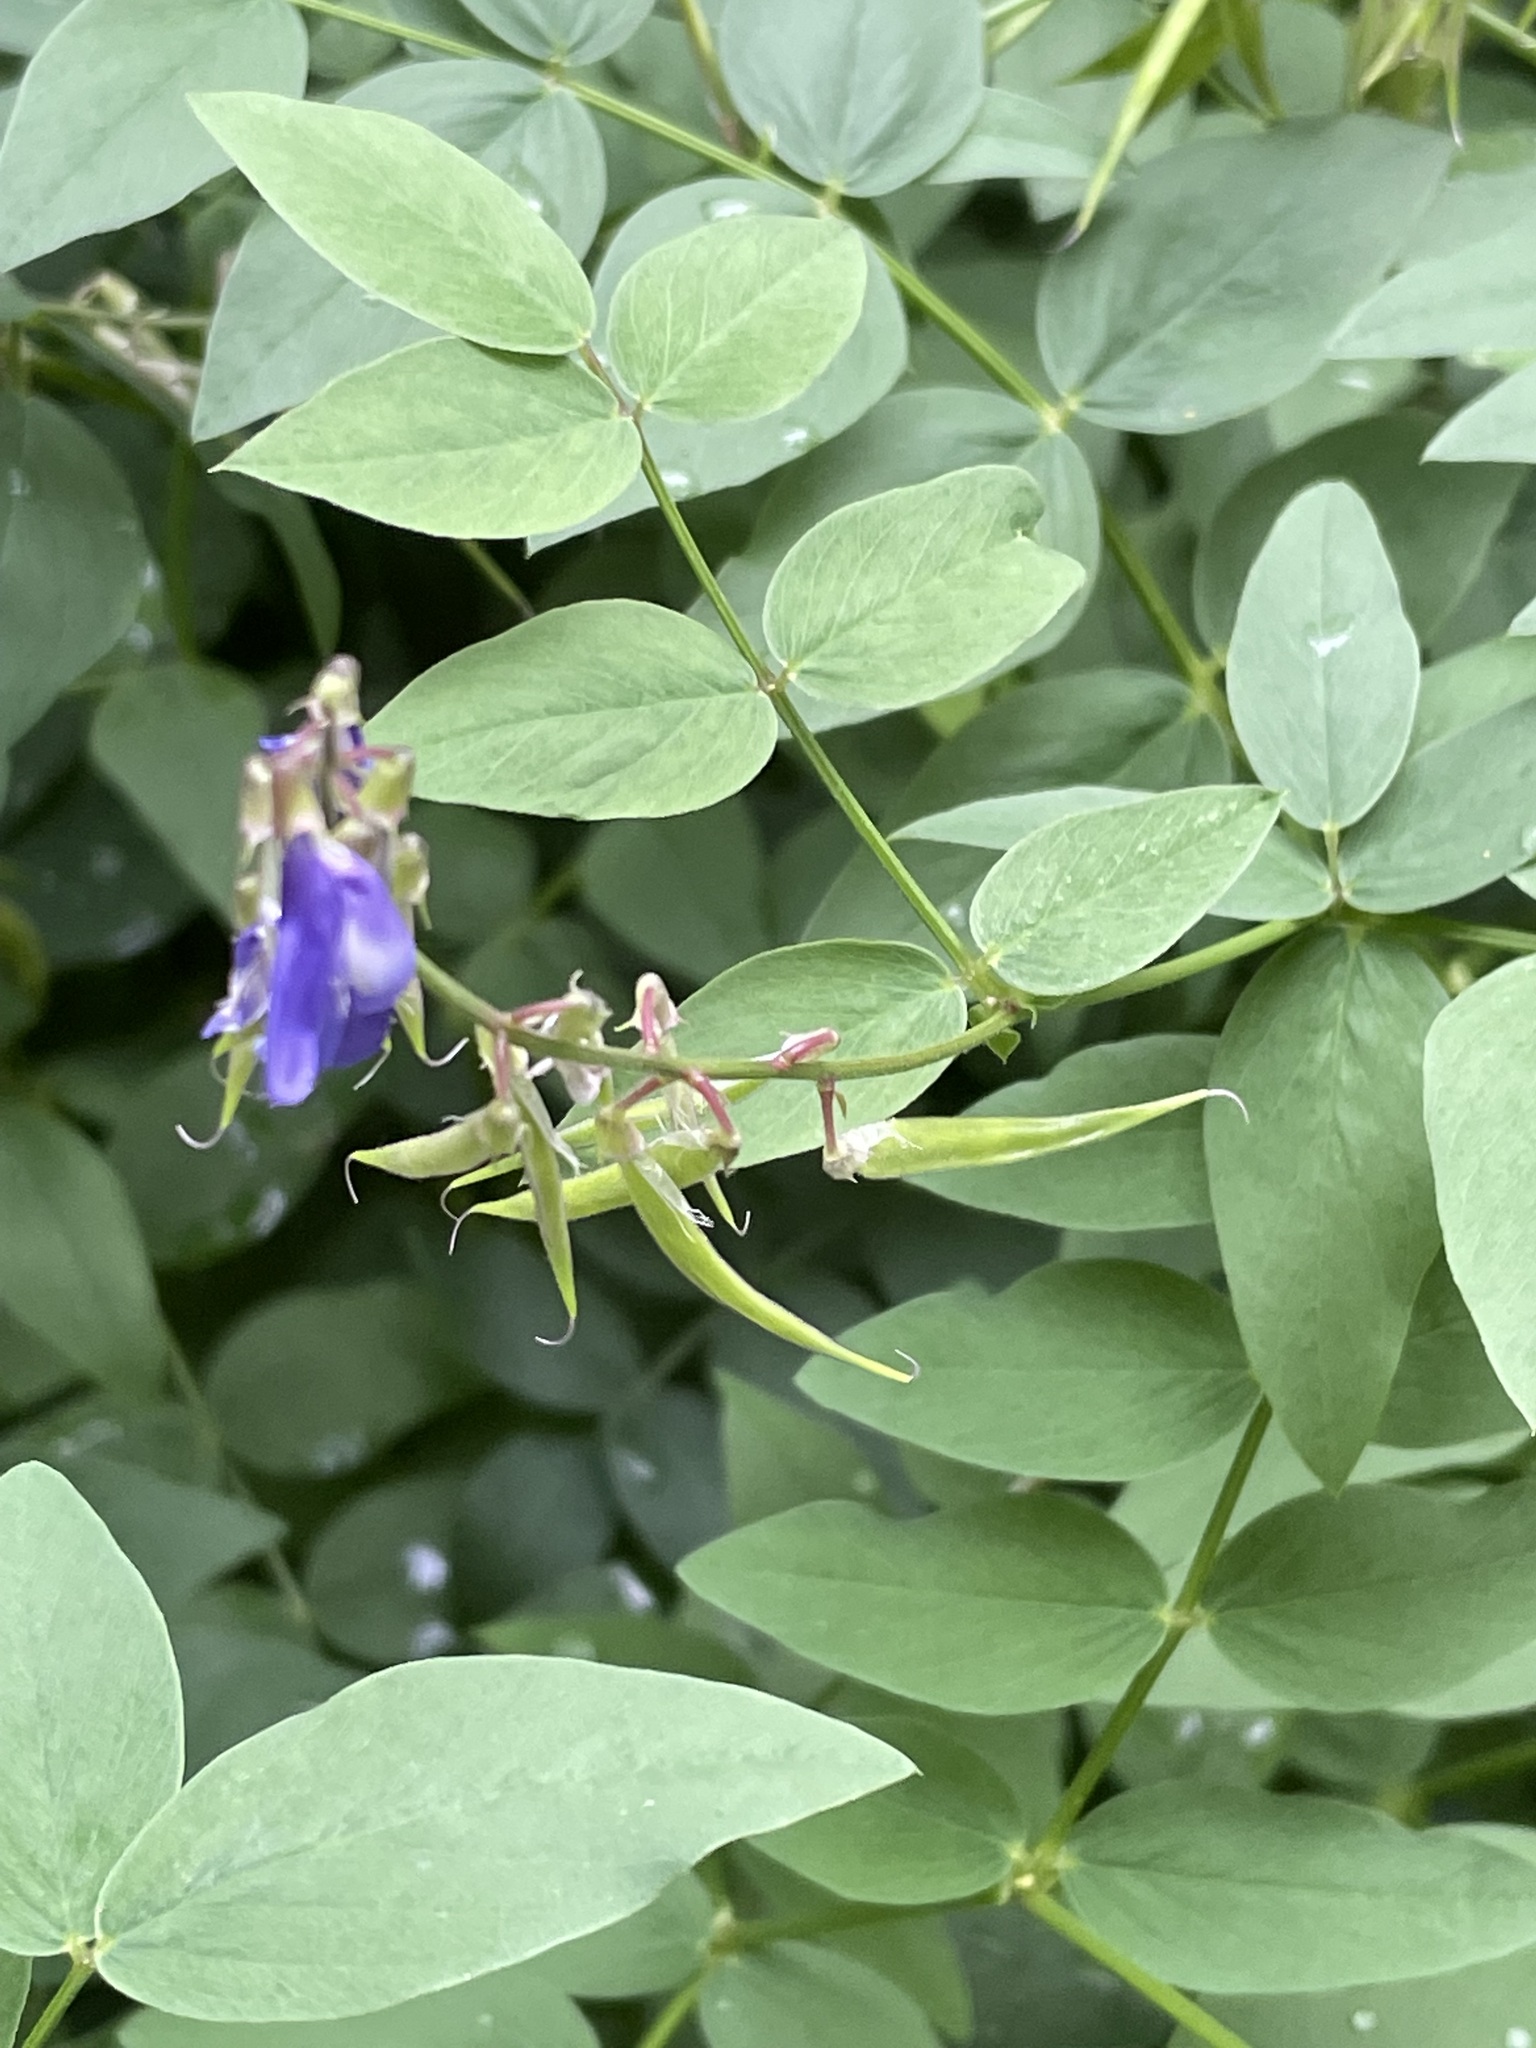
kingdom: Plantae
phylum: Tracheophyta
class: Magnoliopsida
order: Fabales
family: Fabaceae
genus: Galega
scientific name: Galega orientalis
